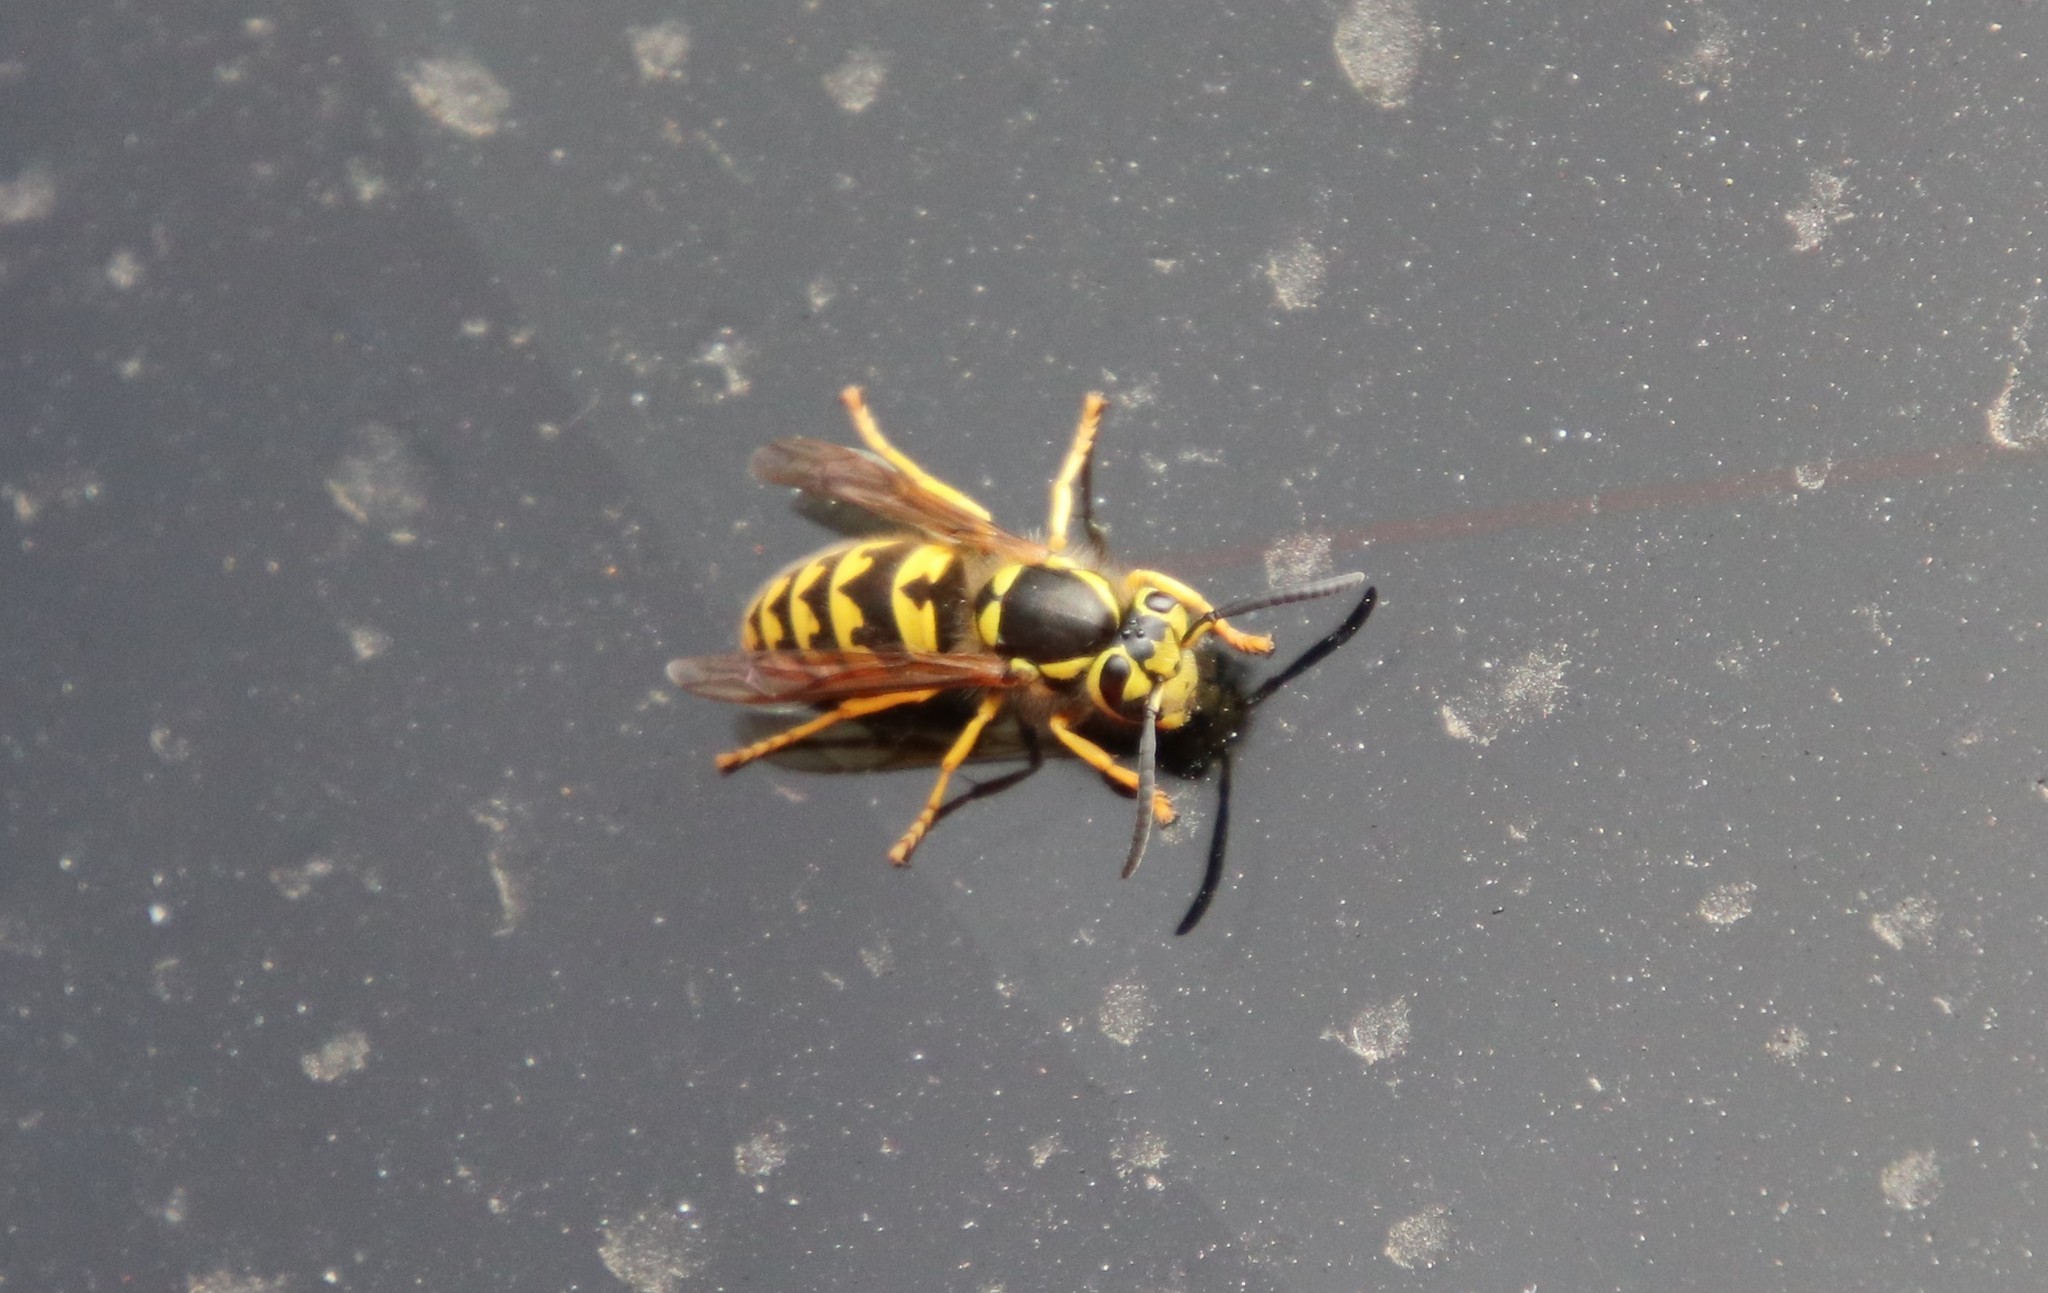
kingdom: Animalia
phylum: Arthropoda
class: Insecta
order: Hymenoptera
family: Vespidae
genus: Vespula
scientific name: Vespula pensylvanica
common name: Western yellowjacket
